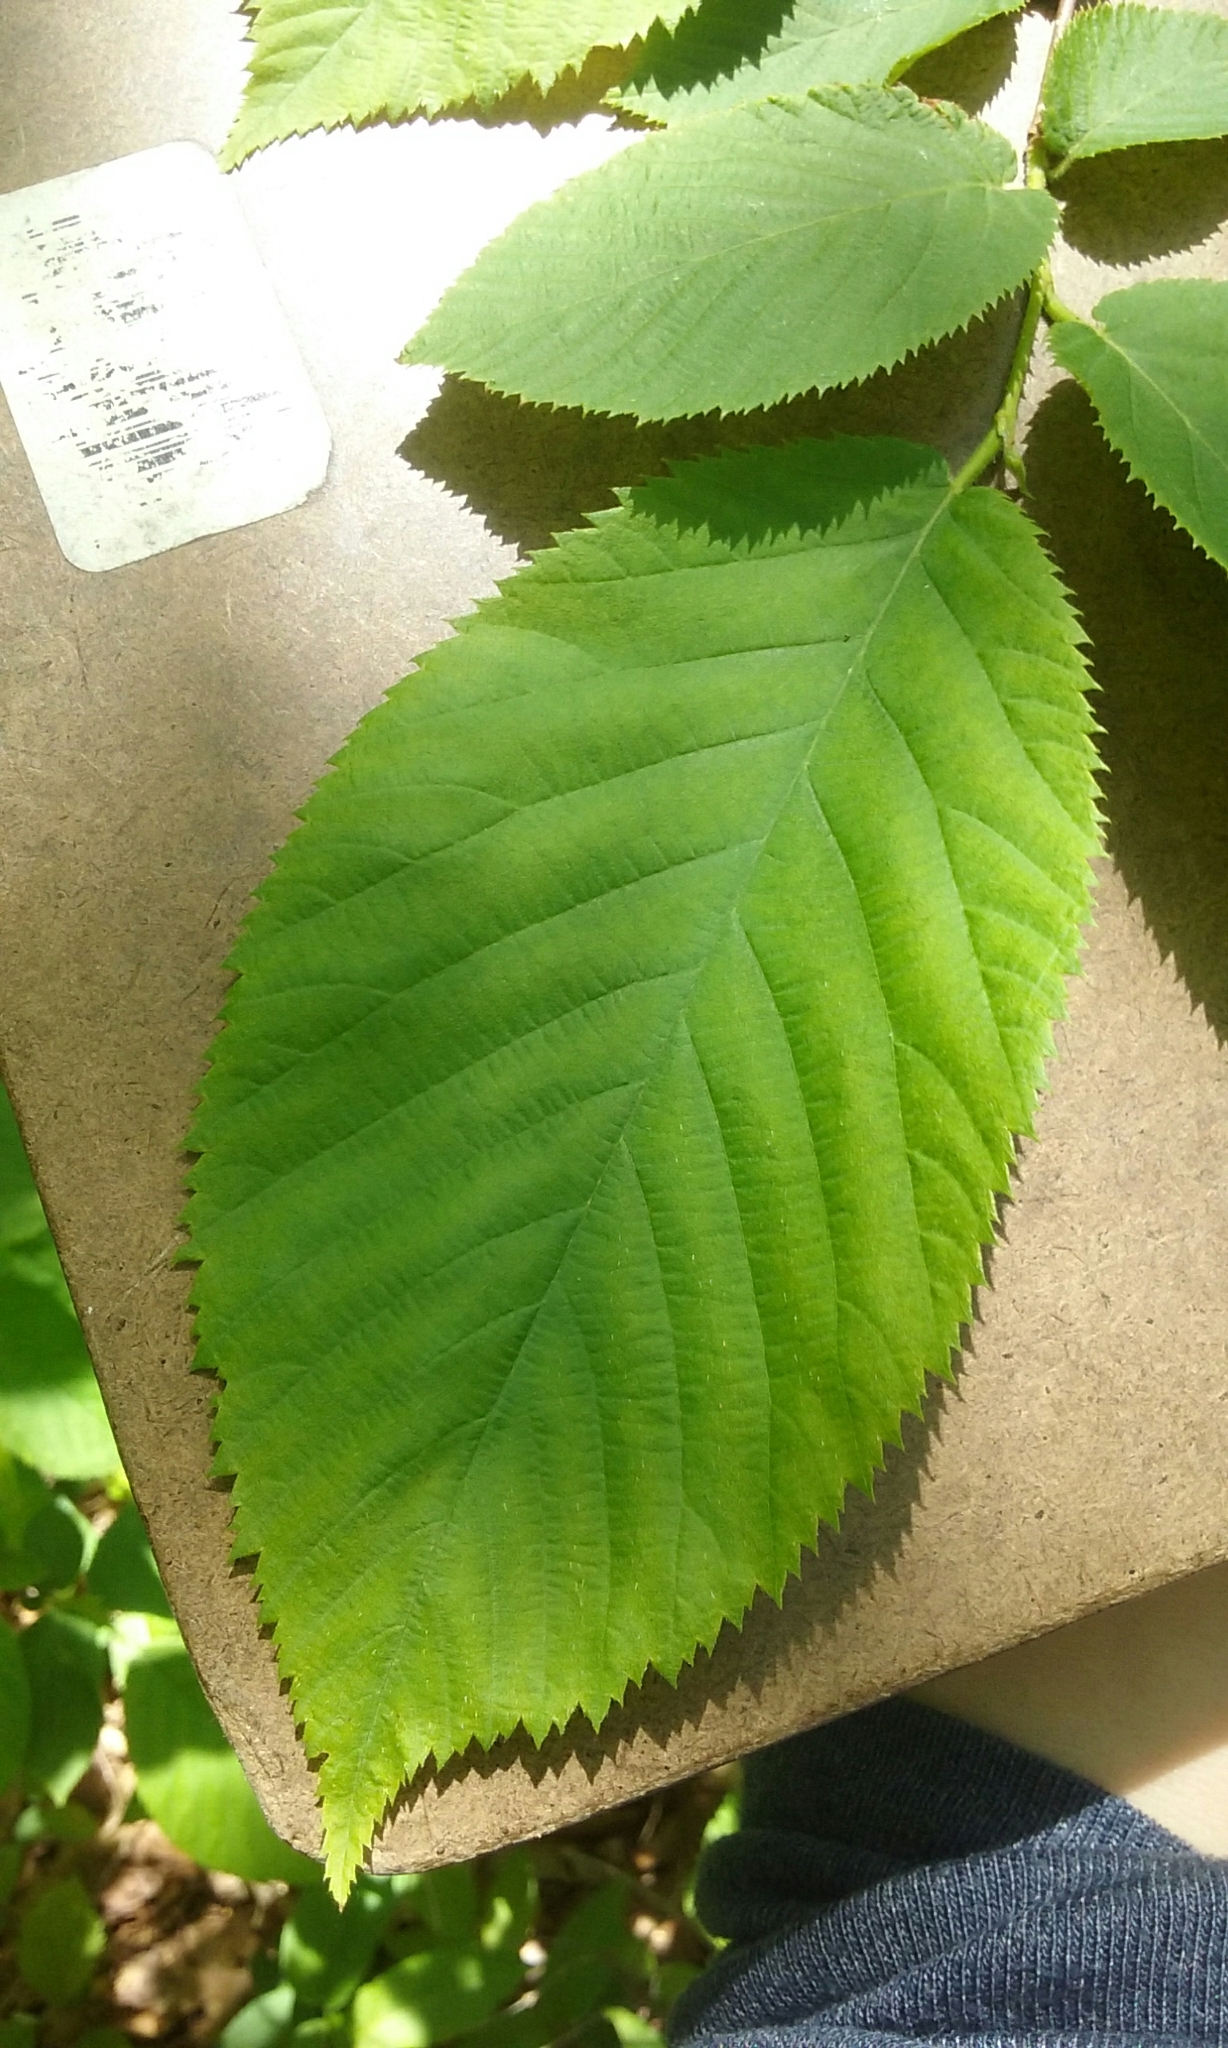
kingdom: Plantae
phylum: Tracheophyta
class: Magnoliopsida
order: Fagales
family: Betulaceae
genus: Ostrya
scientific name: Ostrya virginiana
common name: Ironwood
